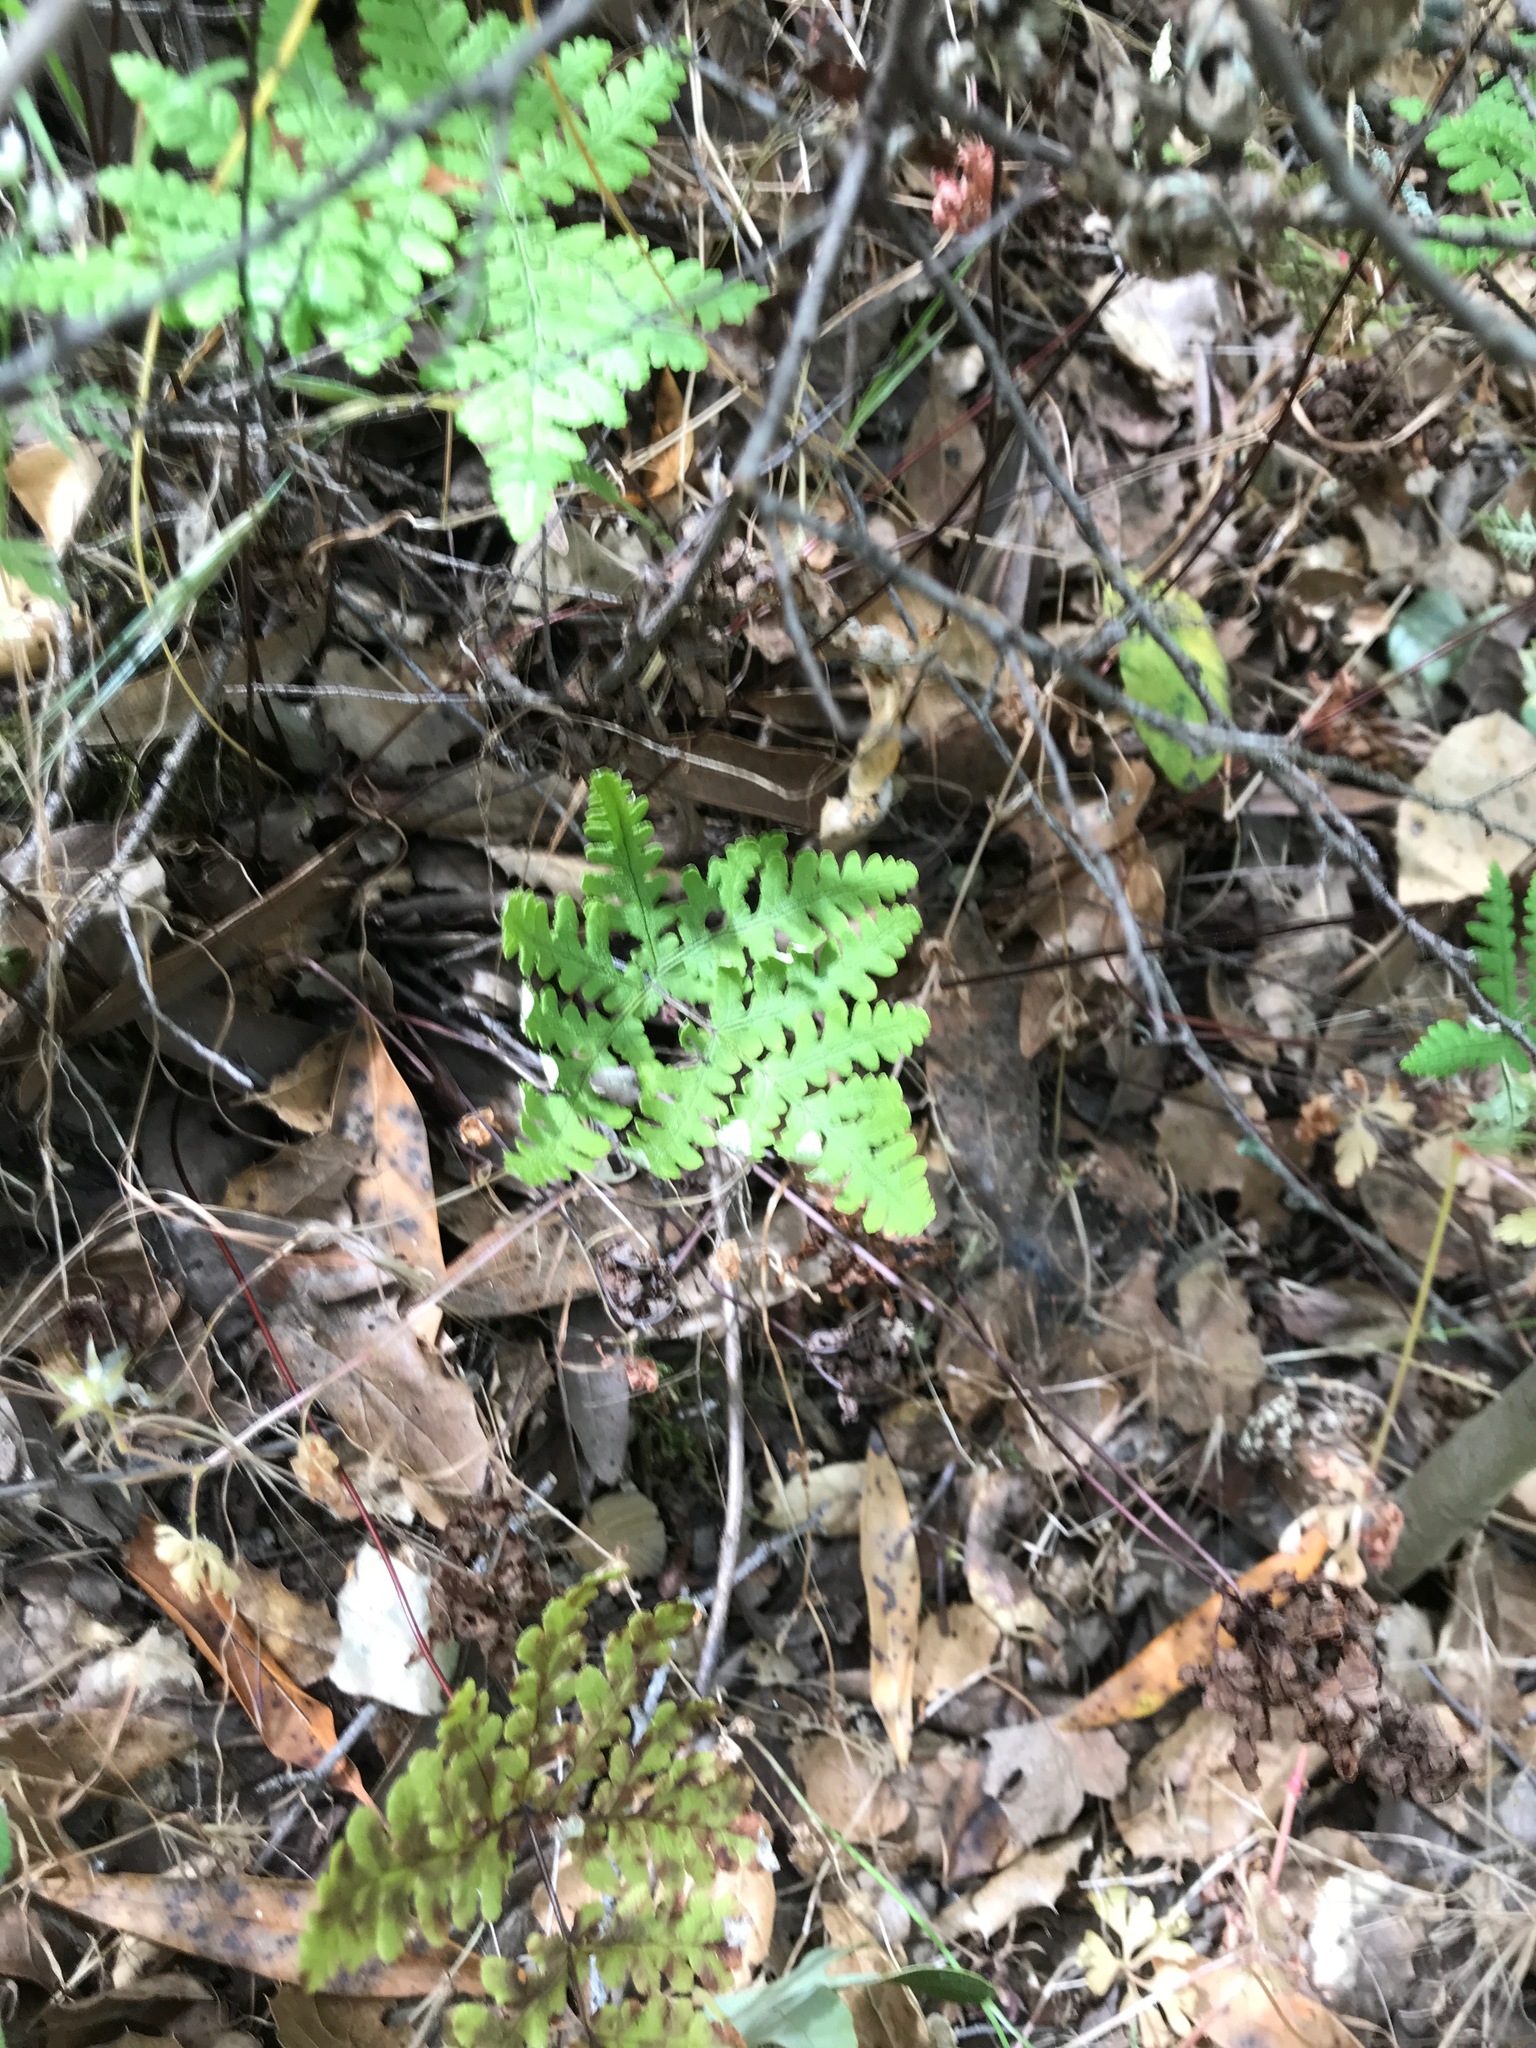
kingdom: Plantae
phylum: Tracheophyta
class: Polypodiopsida
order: Polypodiales
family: Pteridaceae
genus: Pentagramma
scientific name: Pentagramma triangularis
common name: Gold fern
